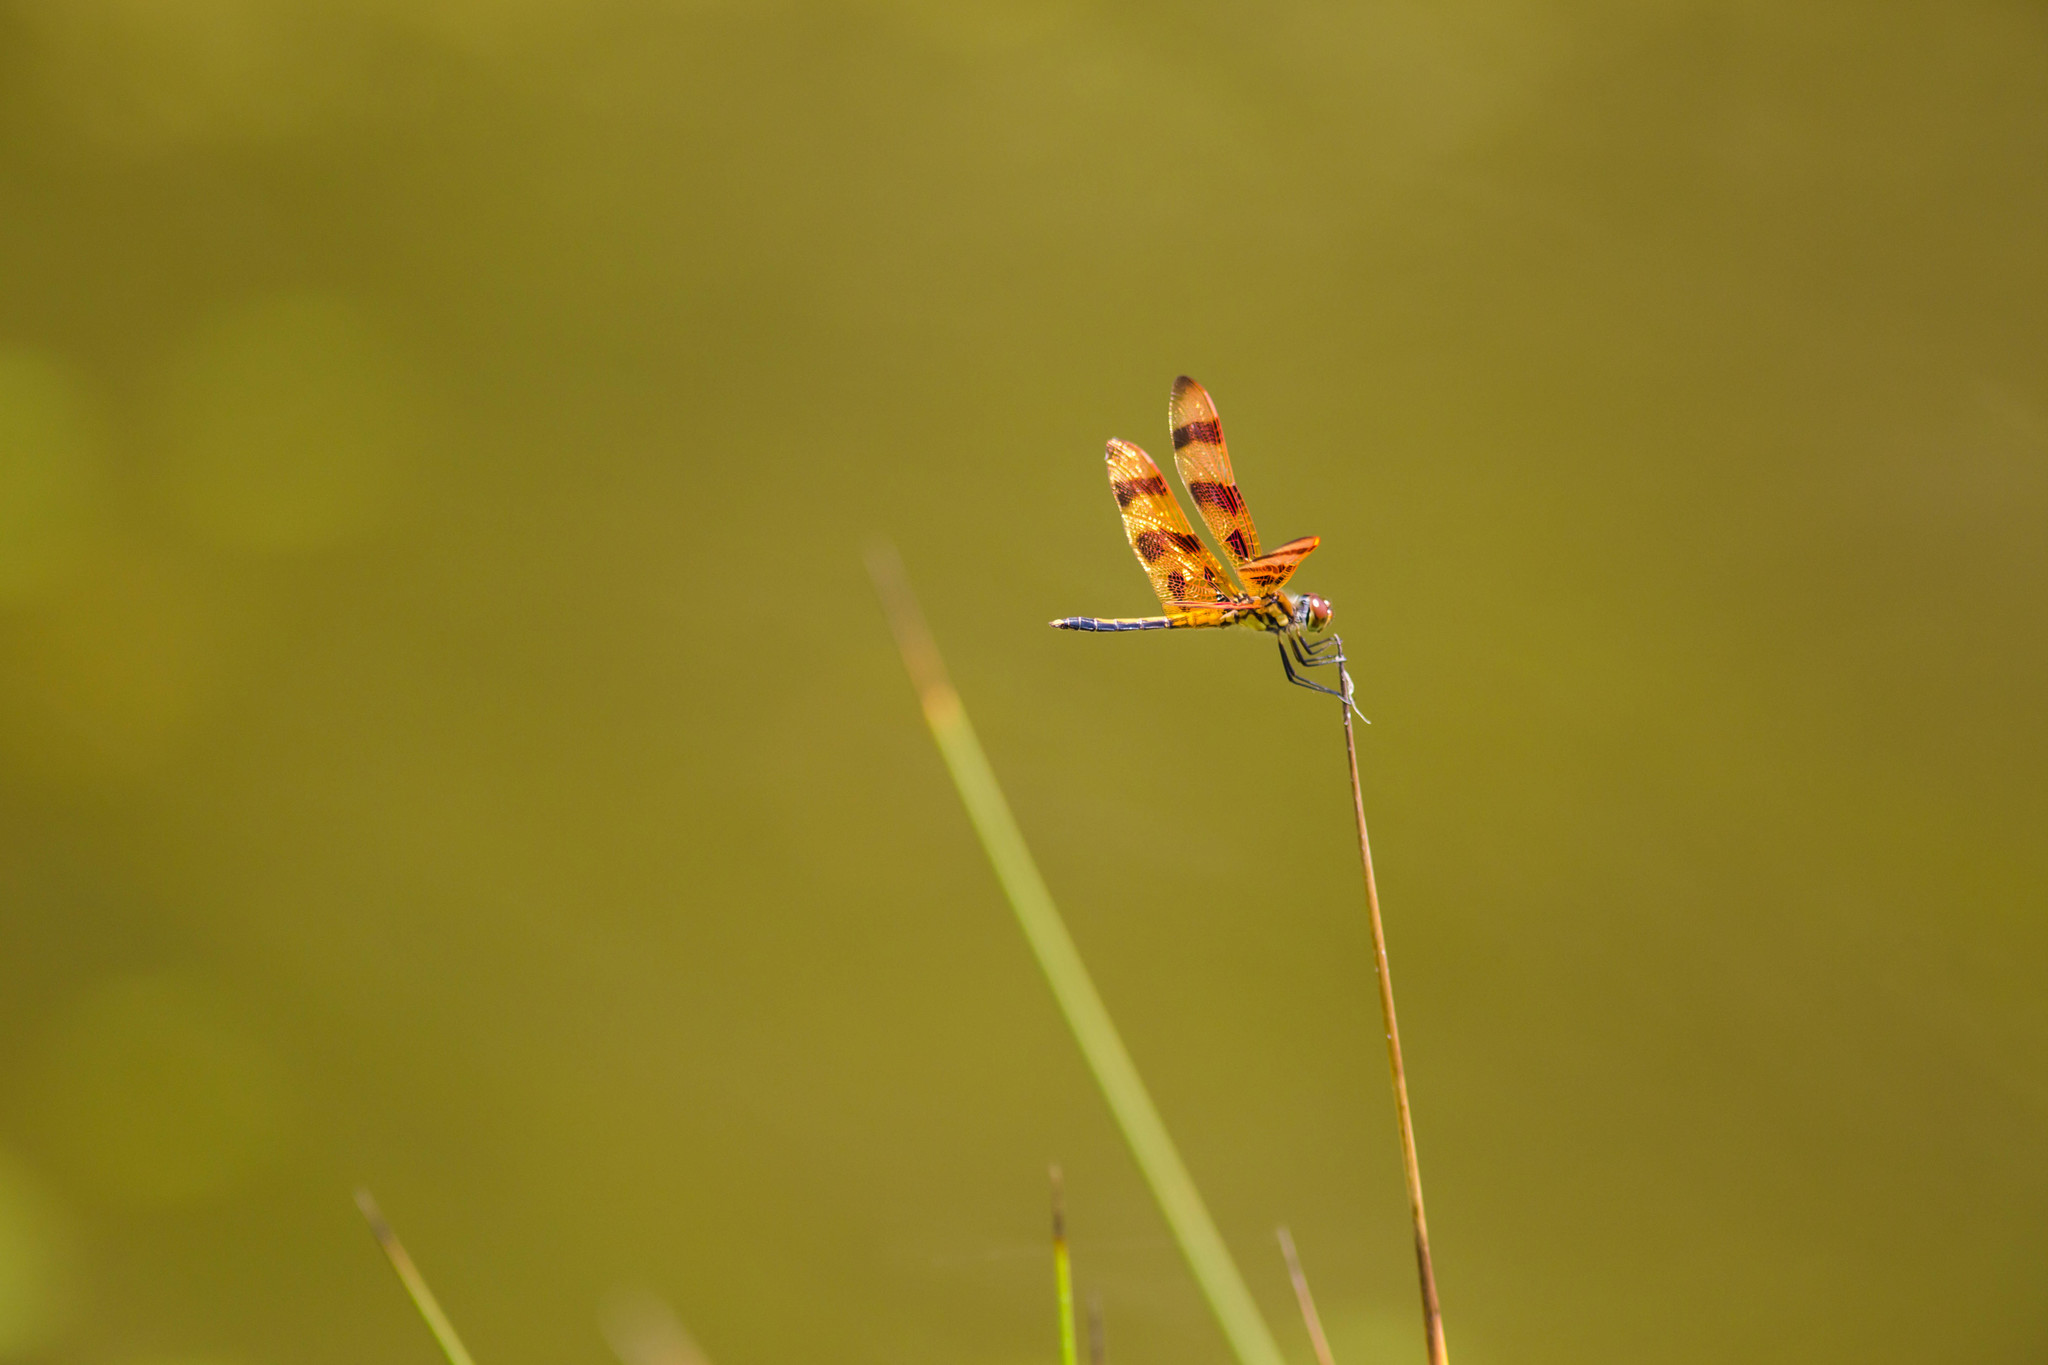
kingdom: Animalia
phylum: Arthropoda
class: Insecta
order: Odonata
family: Libellulidae
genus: Celithemis
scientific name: Celithemis eponina
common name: Halloween pennant
